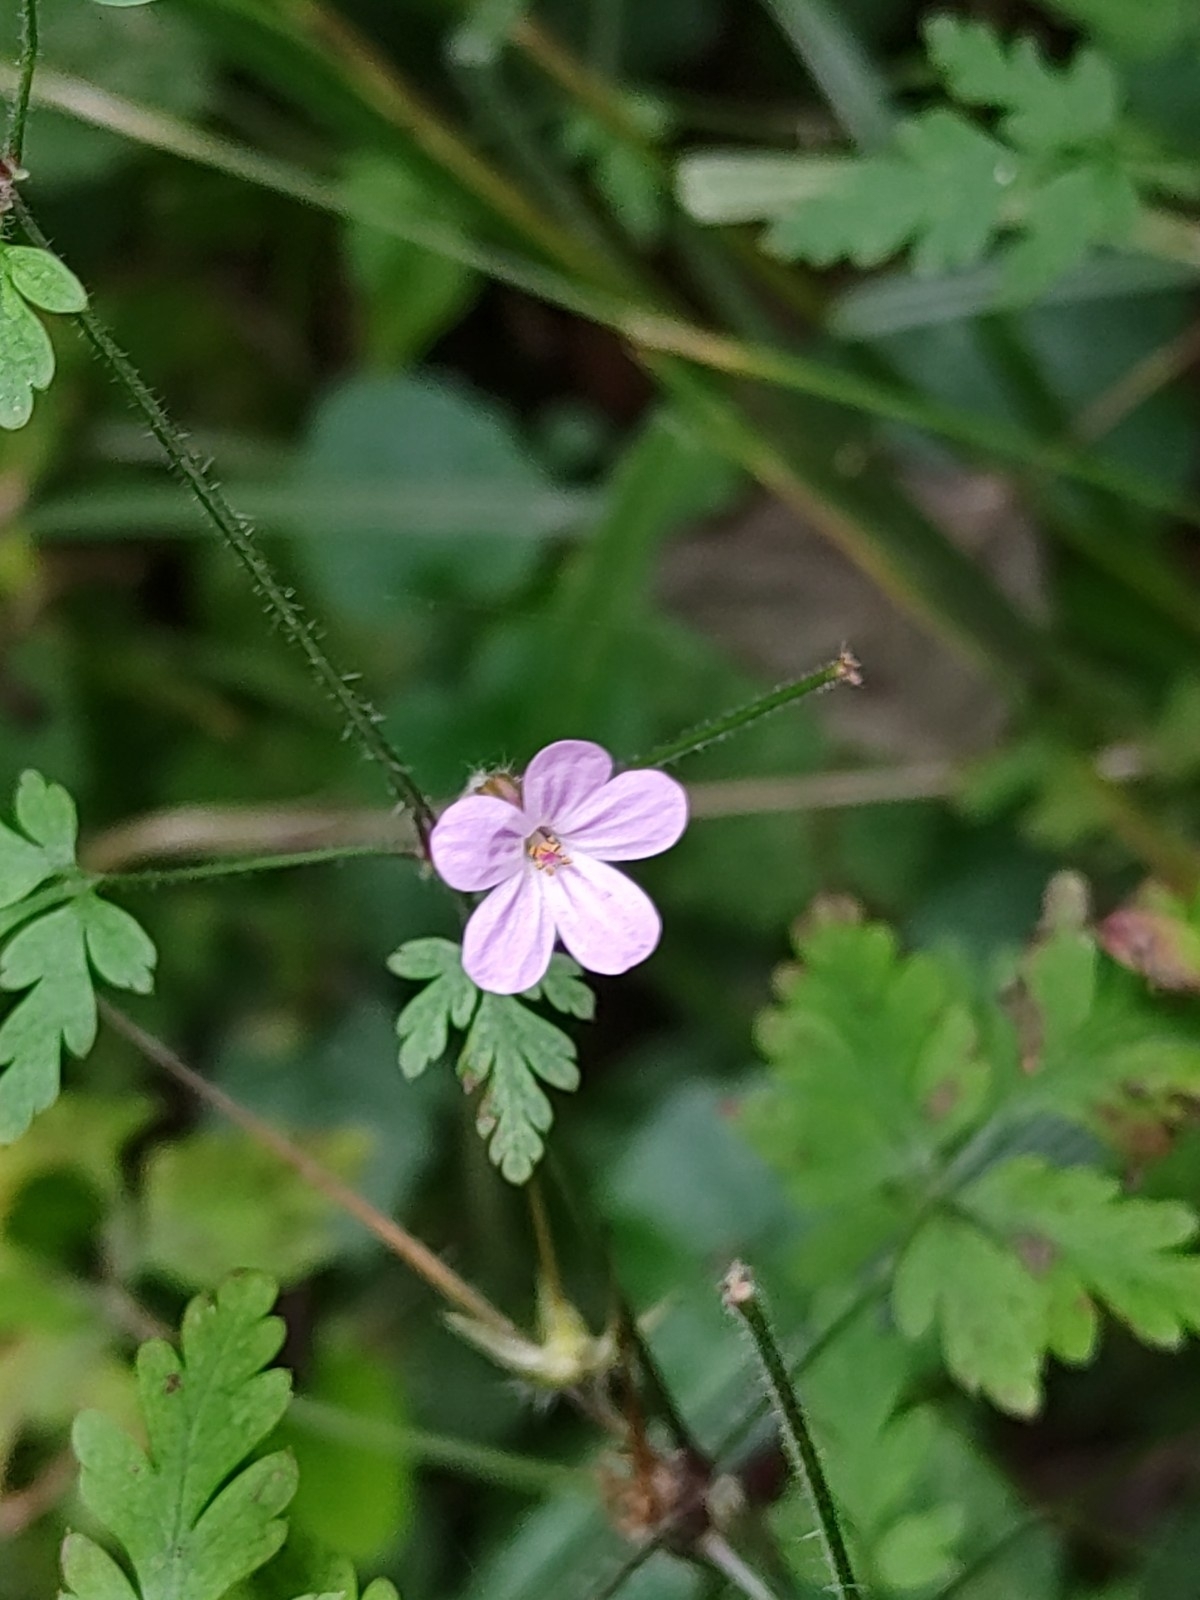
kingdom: Plantae
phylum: Tracheophyta
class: Magnoliopsida
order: Geraniales
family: Geraniaceae
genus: Geranium
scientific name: Geranium robertianum
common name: Herb-robert
